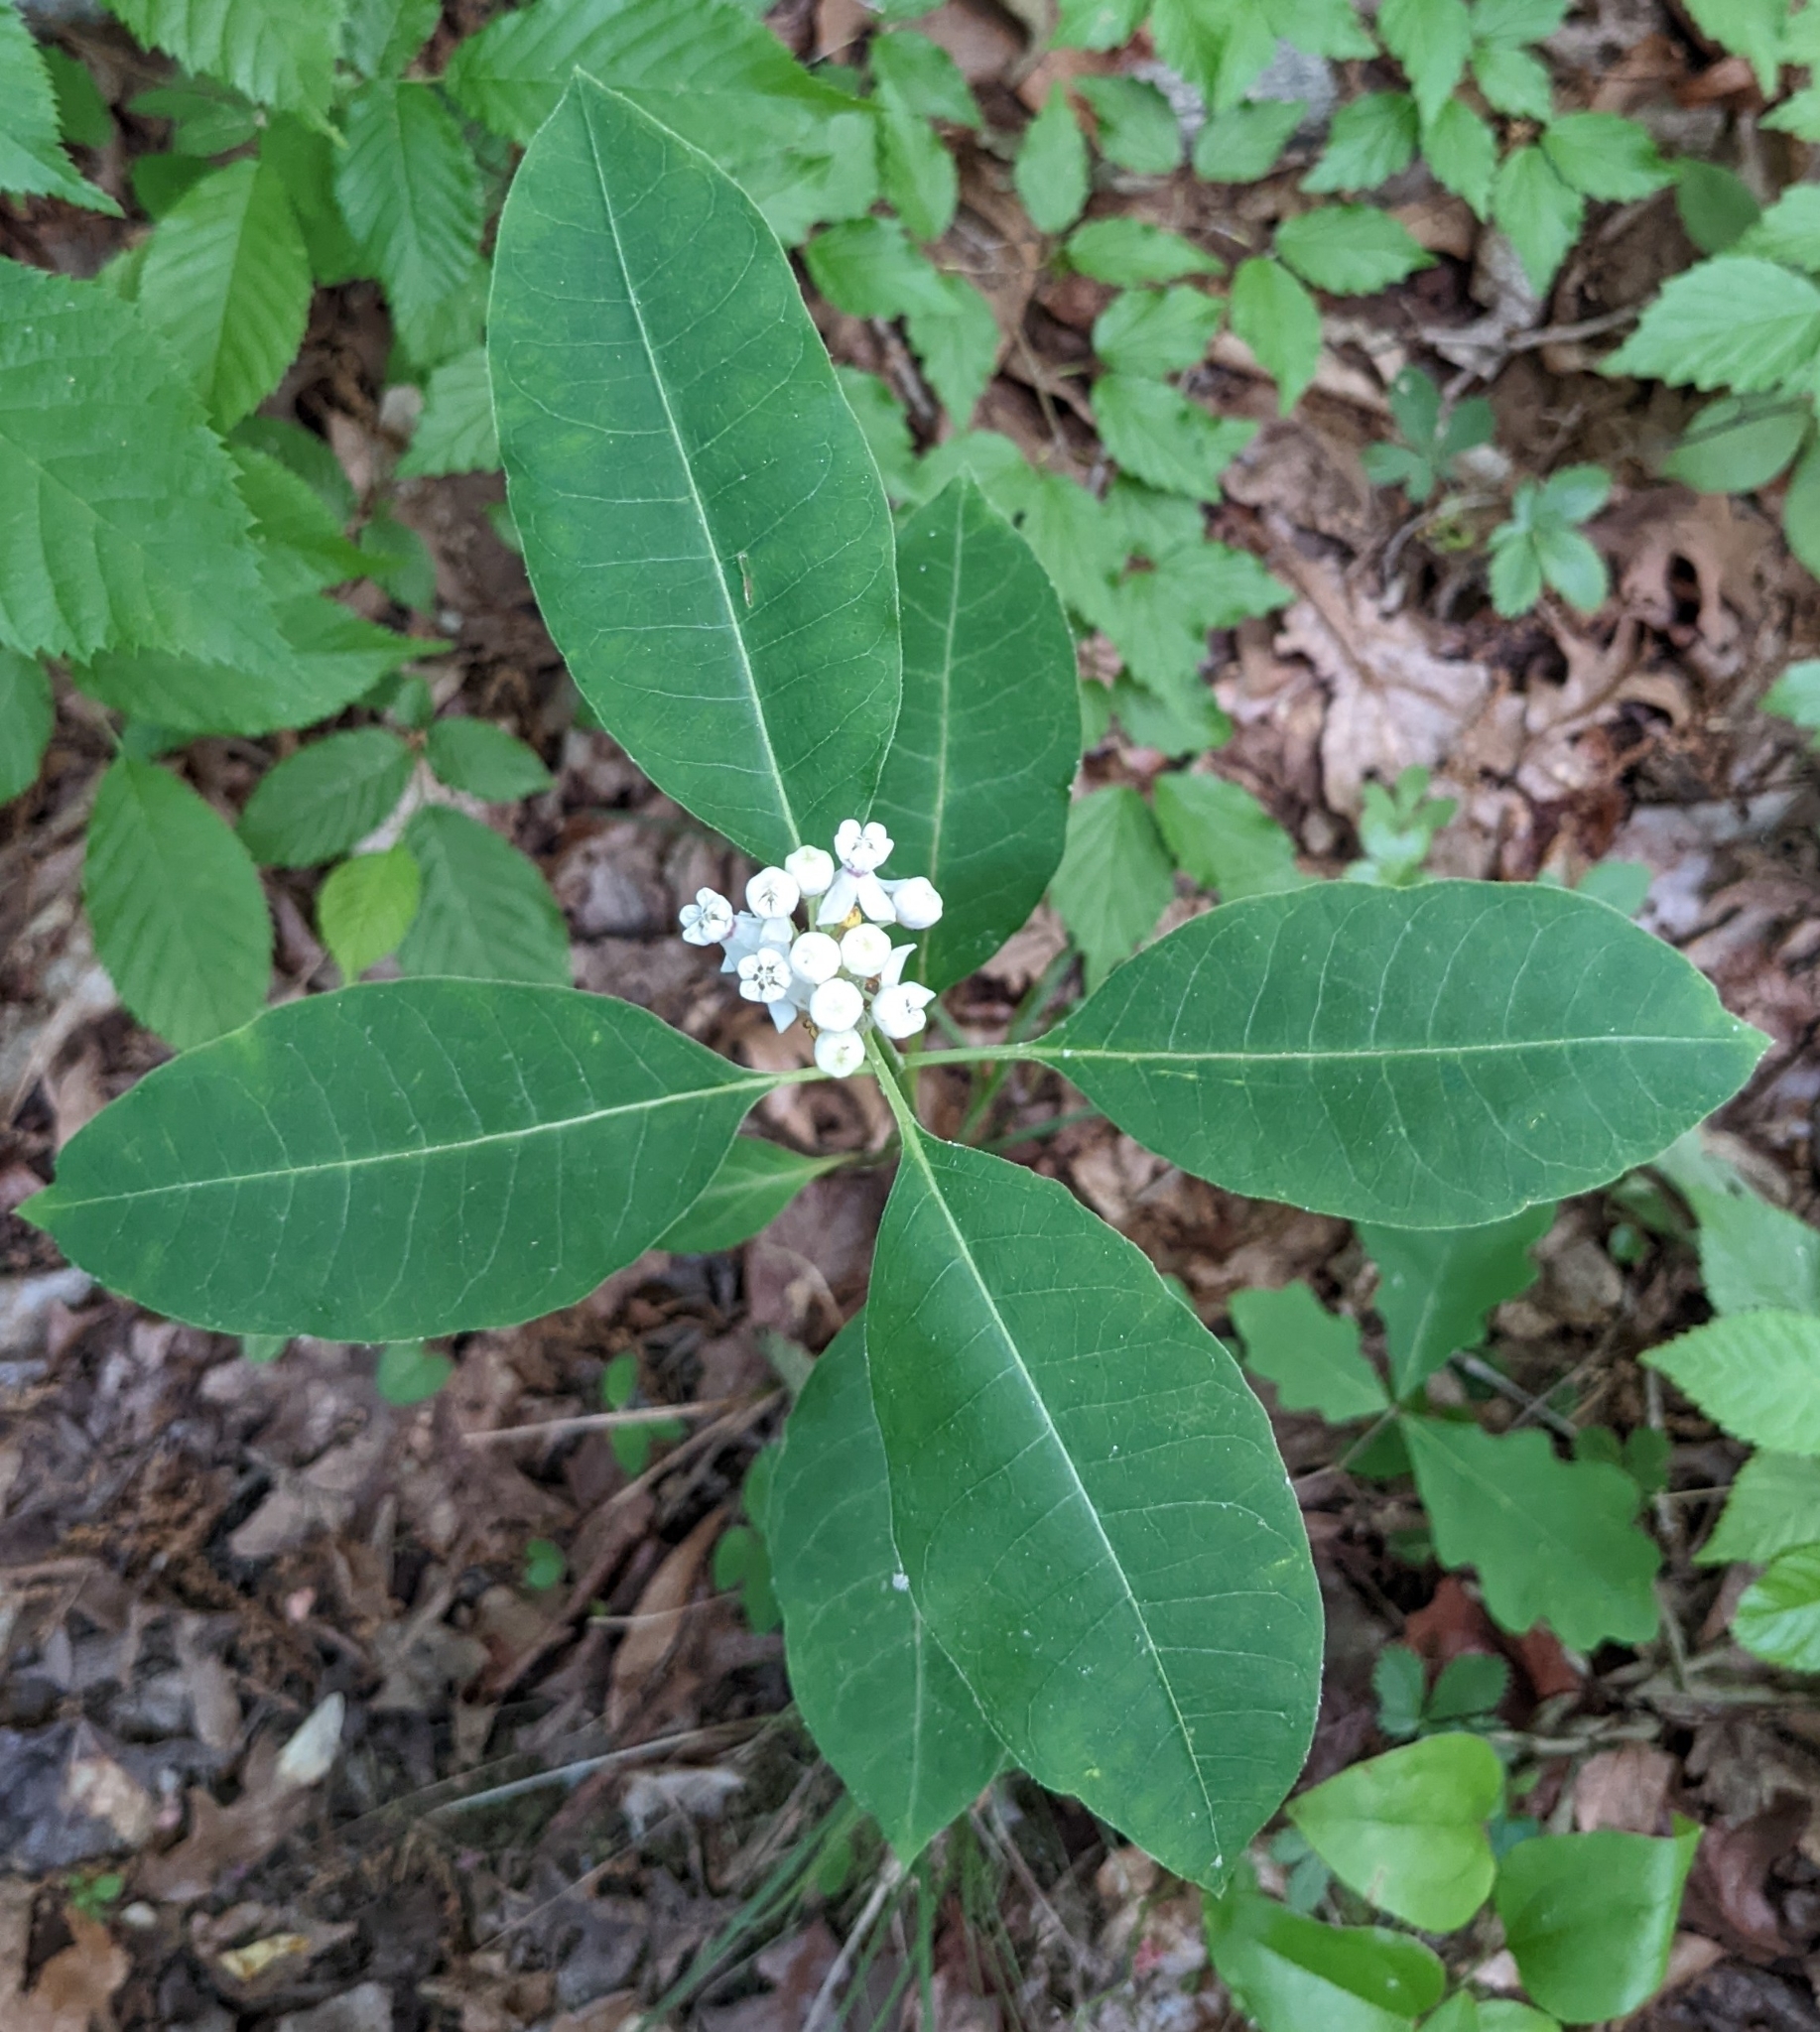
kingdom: Plantae
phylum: Tracheophyta
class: Magnoliopsida
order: Gentianales
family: Apocynaceae
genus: Asclepias
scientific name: Asclepias variegata
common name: Variegated milkweed
